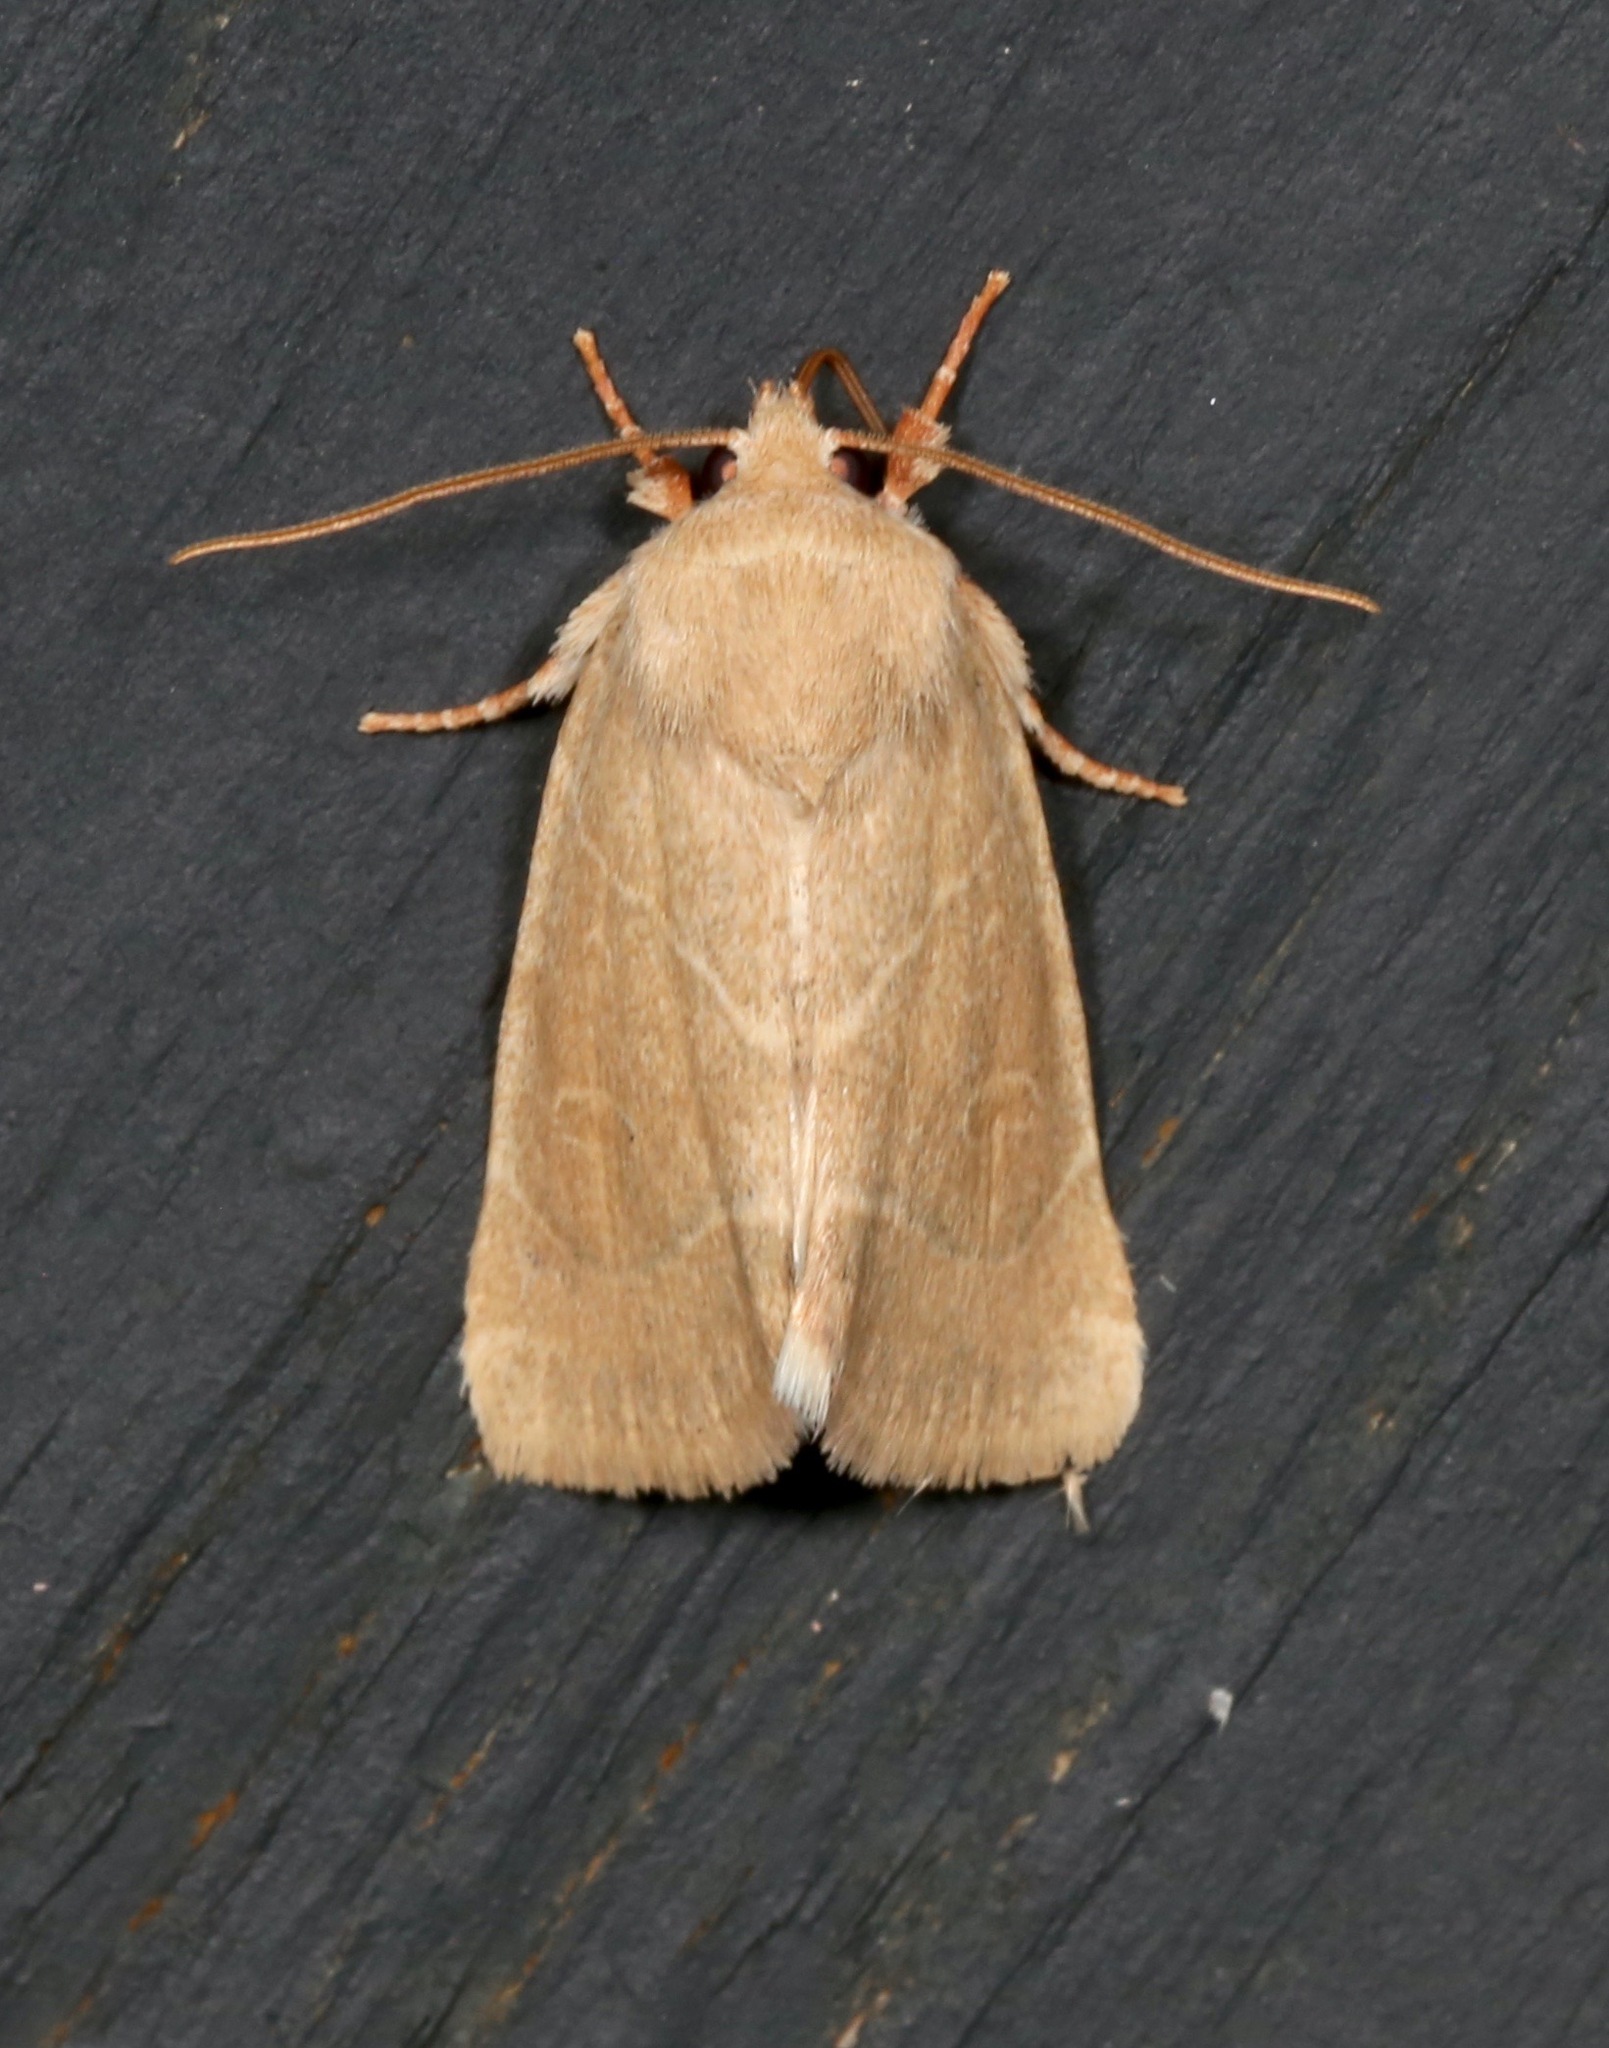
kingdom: Animalia
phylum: Arthropoda
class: Insecta
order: Lepidoptera
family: Noctuidae
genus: Cosmia
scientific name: Cosmia calami
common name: American dun-bar moth
